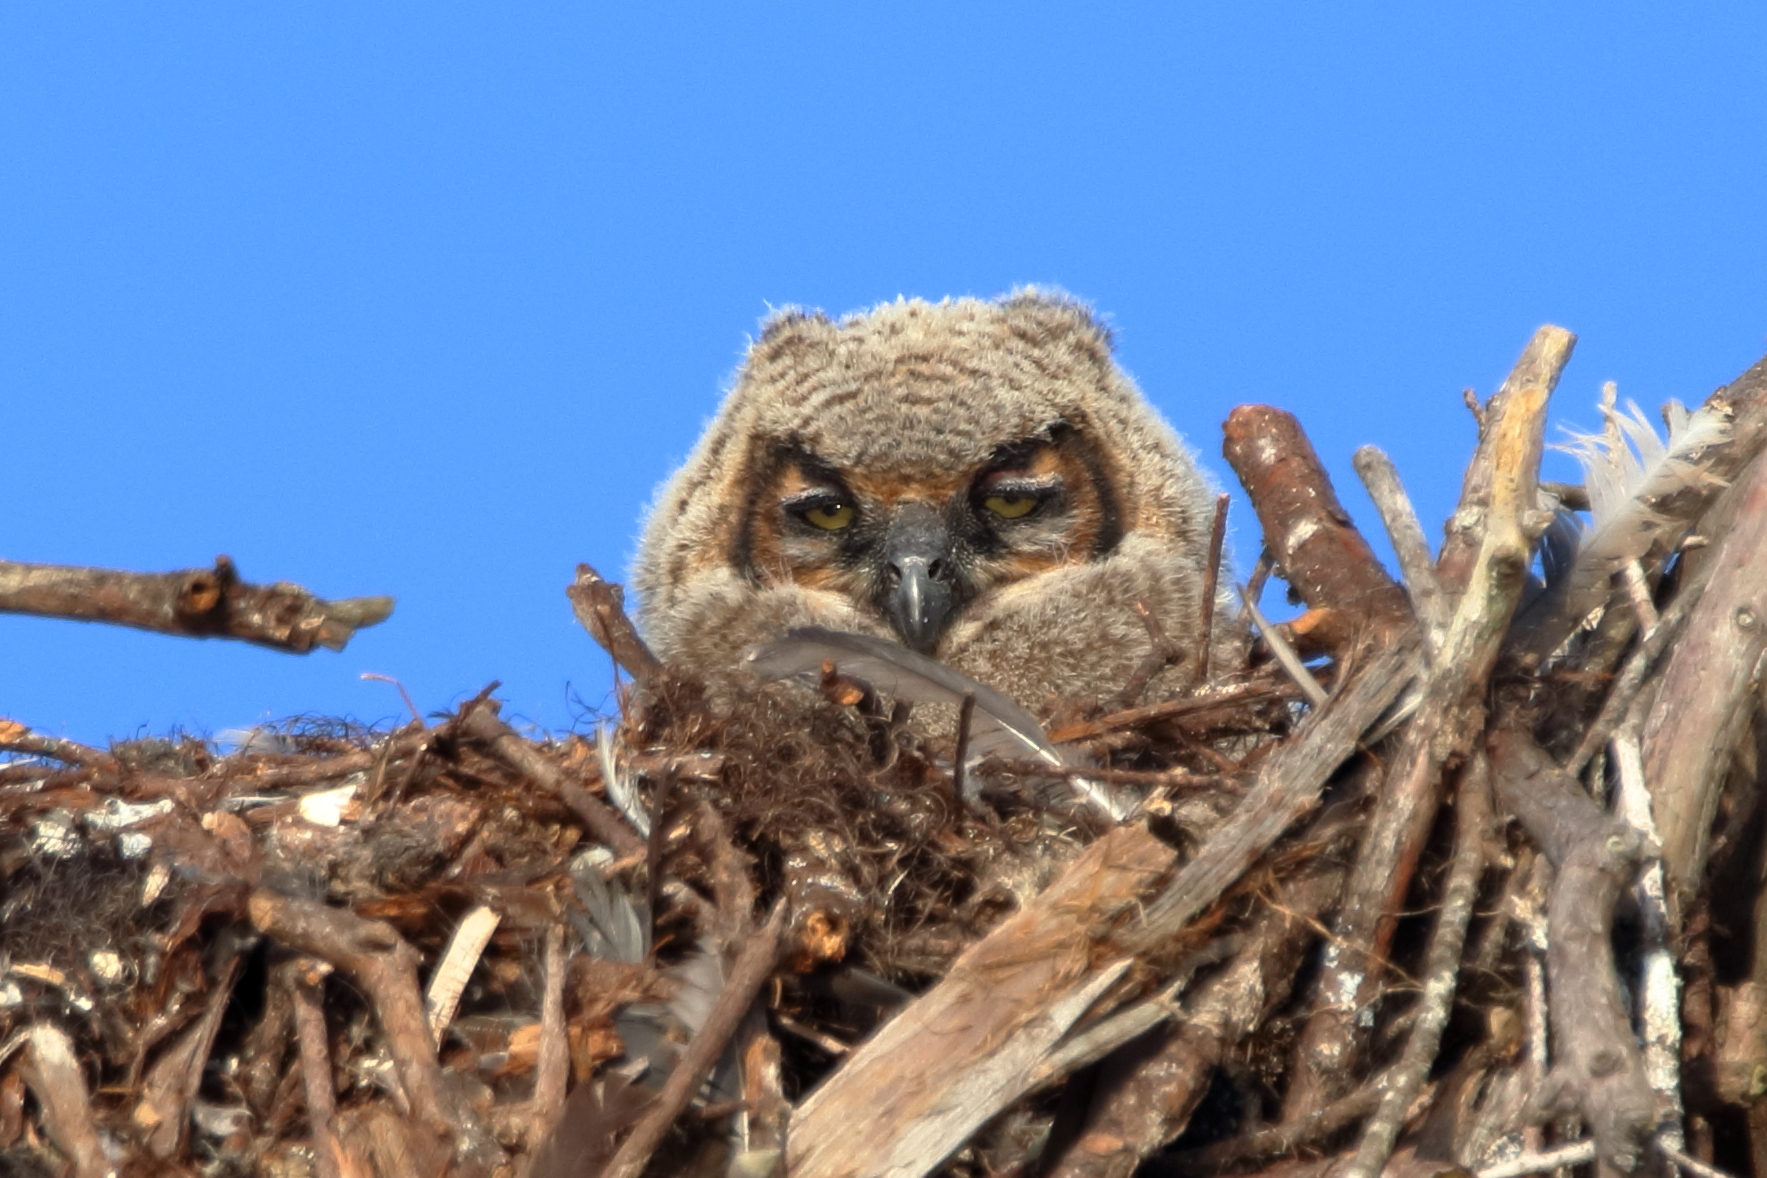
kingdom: Animalia
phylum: Chordata
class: Aves
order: Strigiformes
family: Strigidae
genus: Bubo
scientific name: Bubo virginianus
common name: Great horned owl
